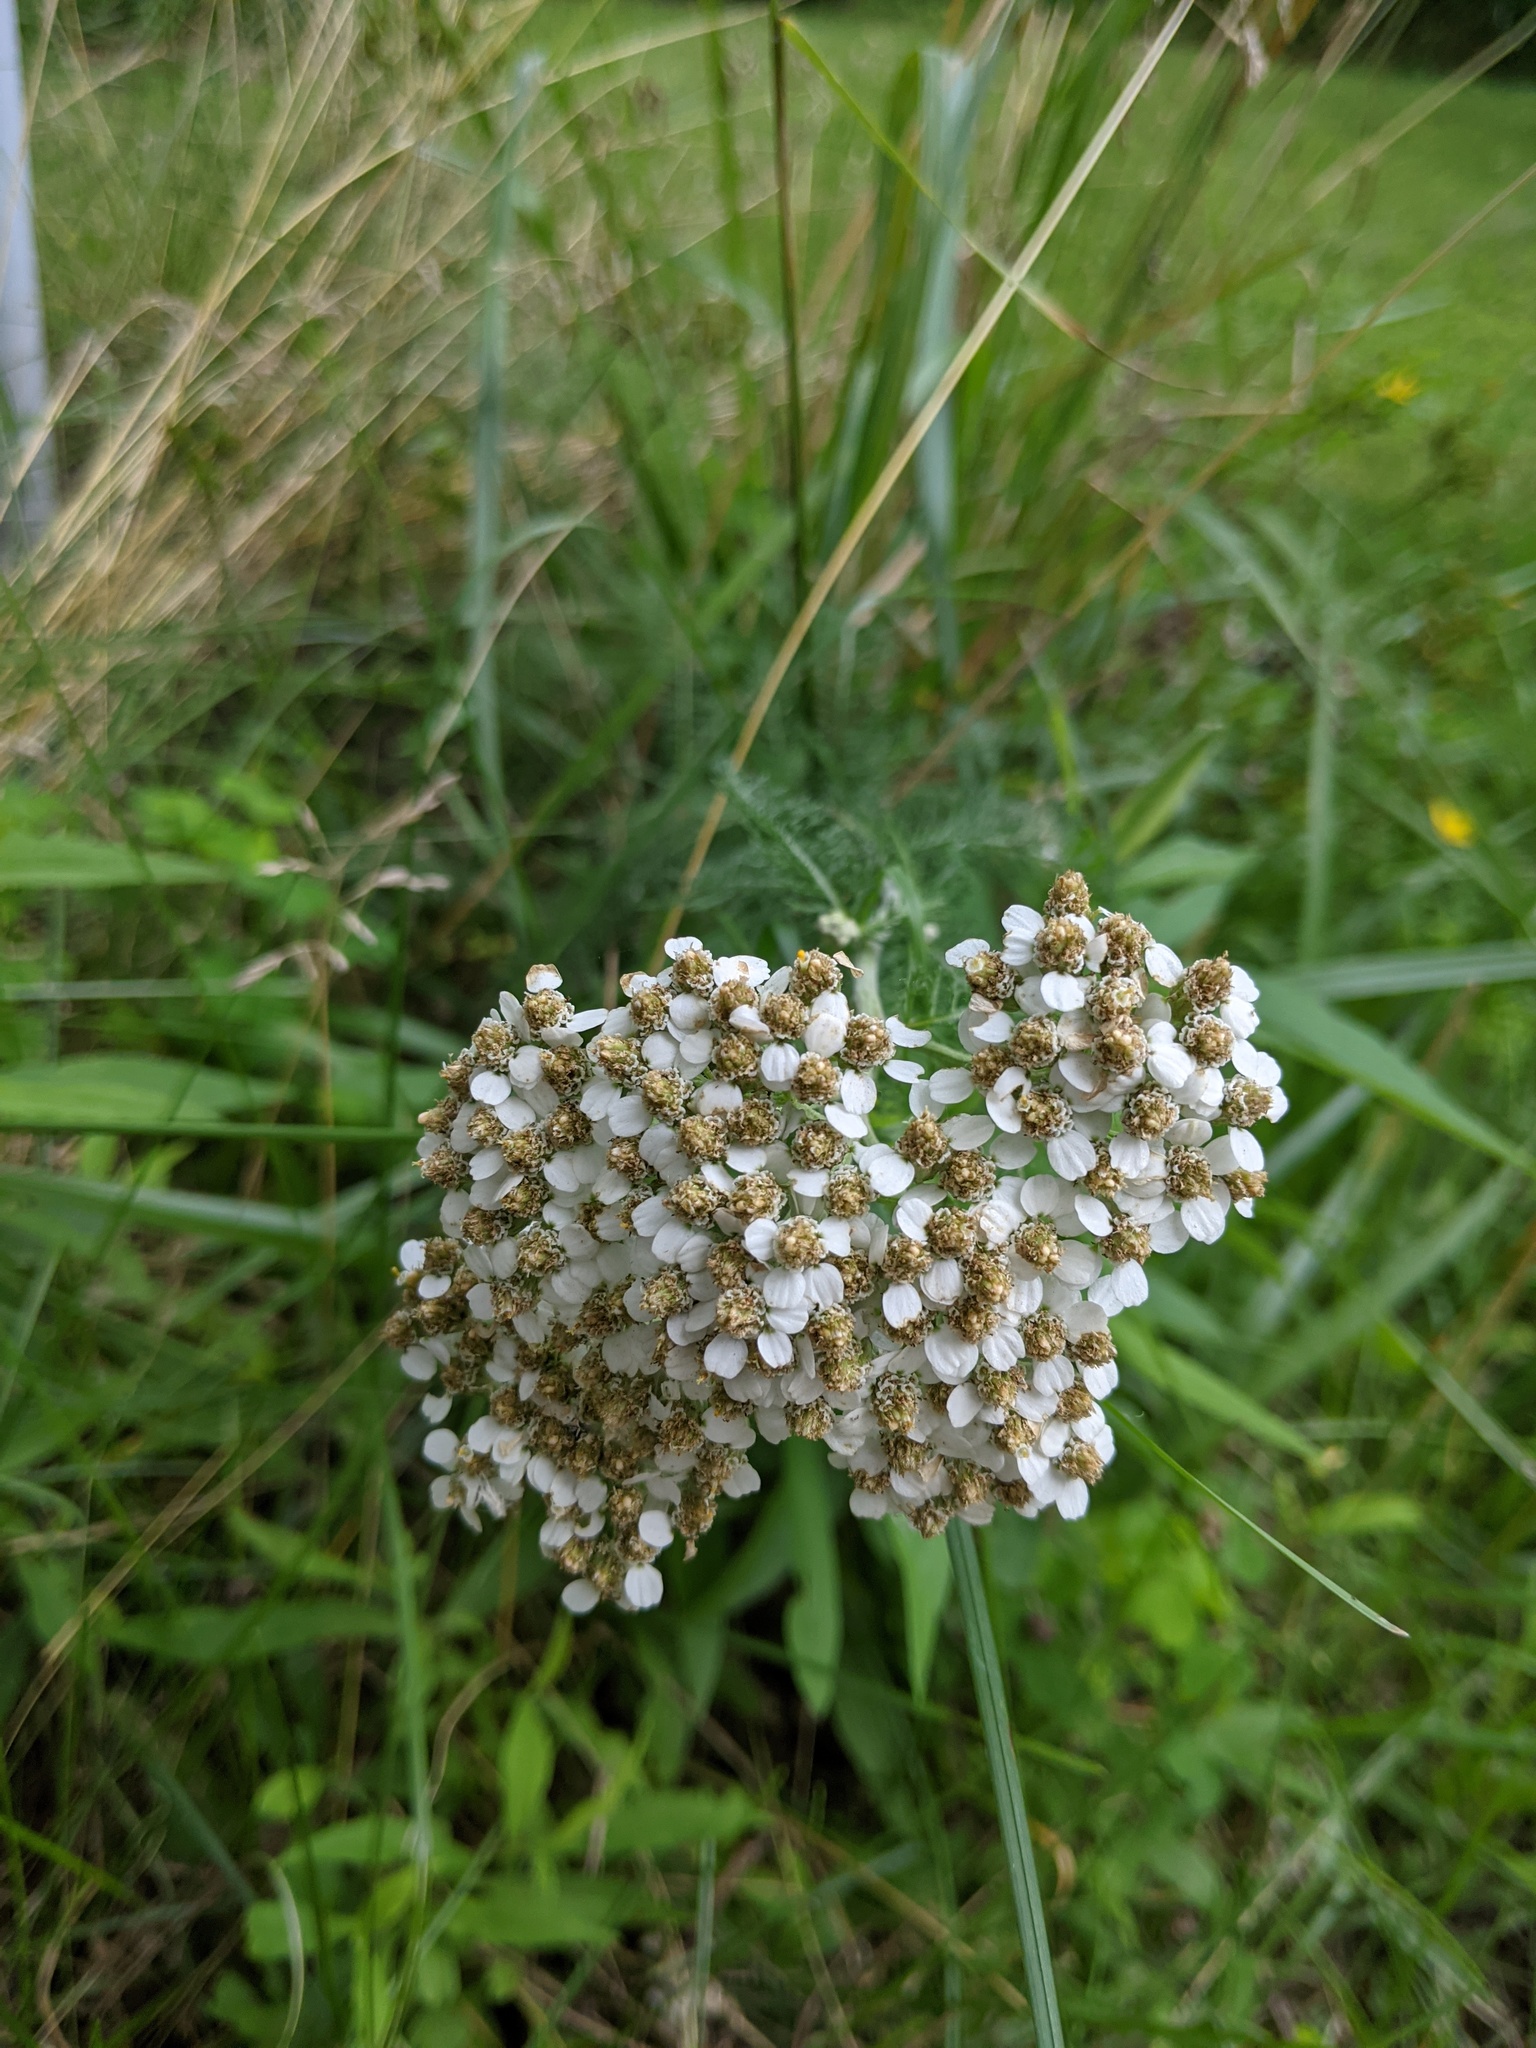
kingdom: Plantae
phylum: Tracheophyta
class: Magnoliopsida
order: Asterales
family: Asteraceae
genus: Achillea
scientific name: Achillea millefolium
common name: Yarrow
